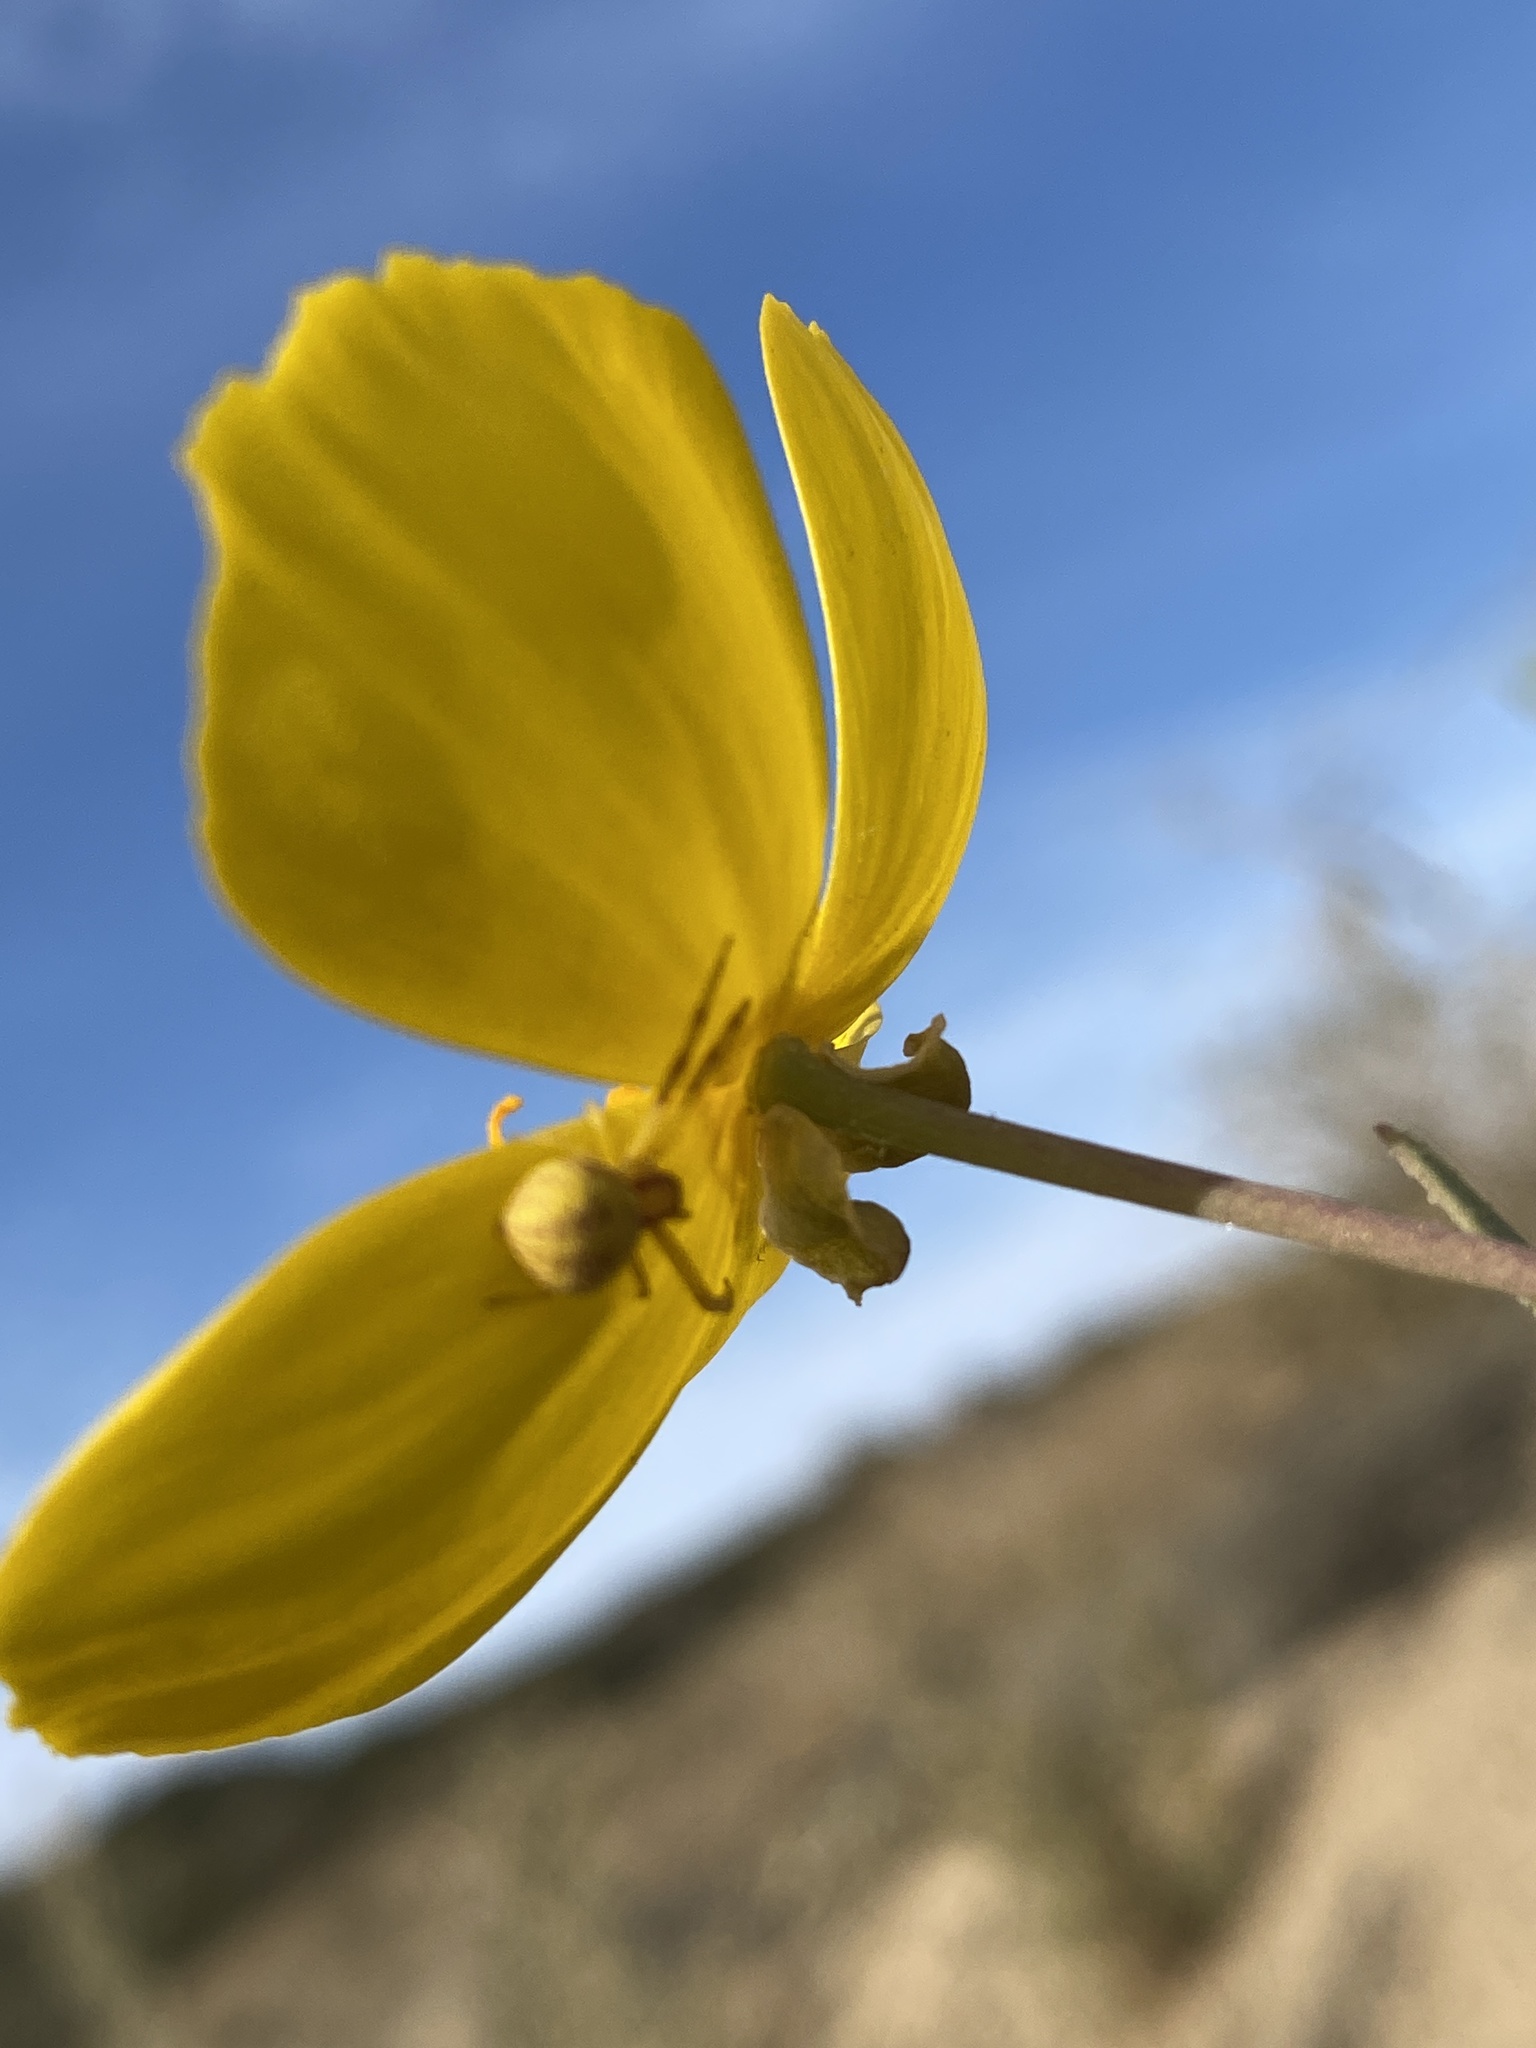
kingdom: Plantae
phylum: Tracheophyta
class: Magnoliopsida
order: Ranunculales
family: Papaveraceae
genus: Dendromecon
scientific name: Dendromecon rigida
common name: Tree poppy
